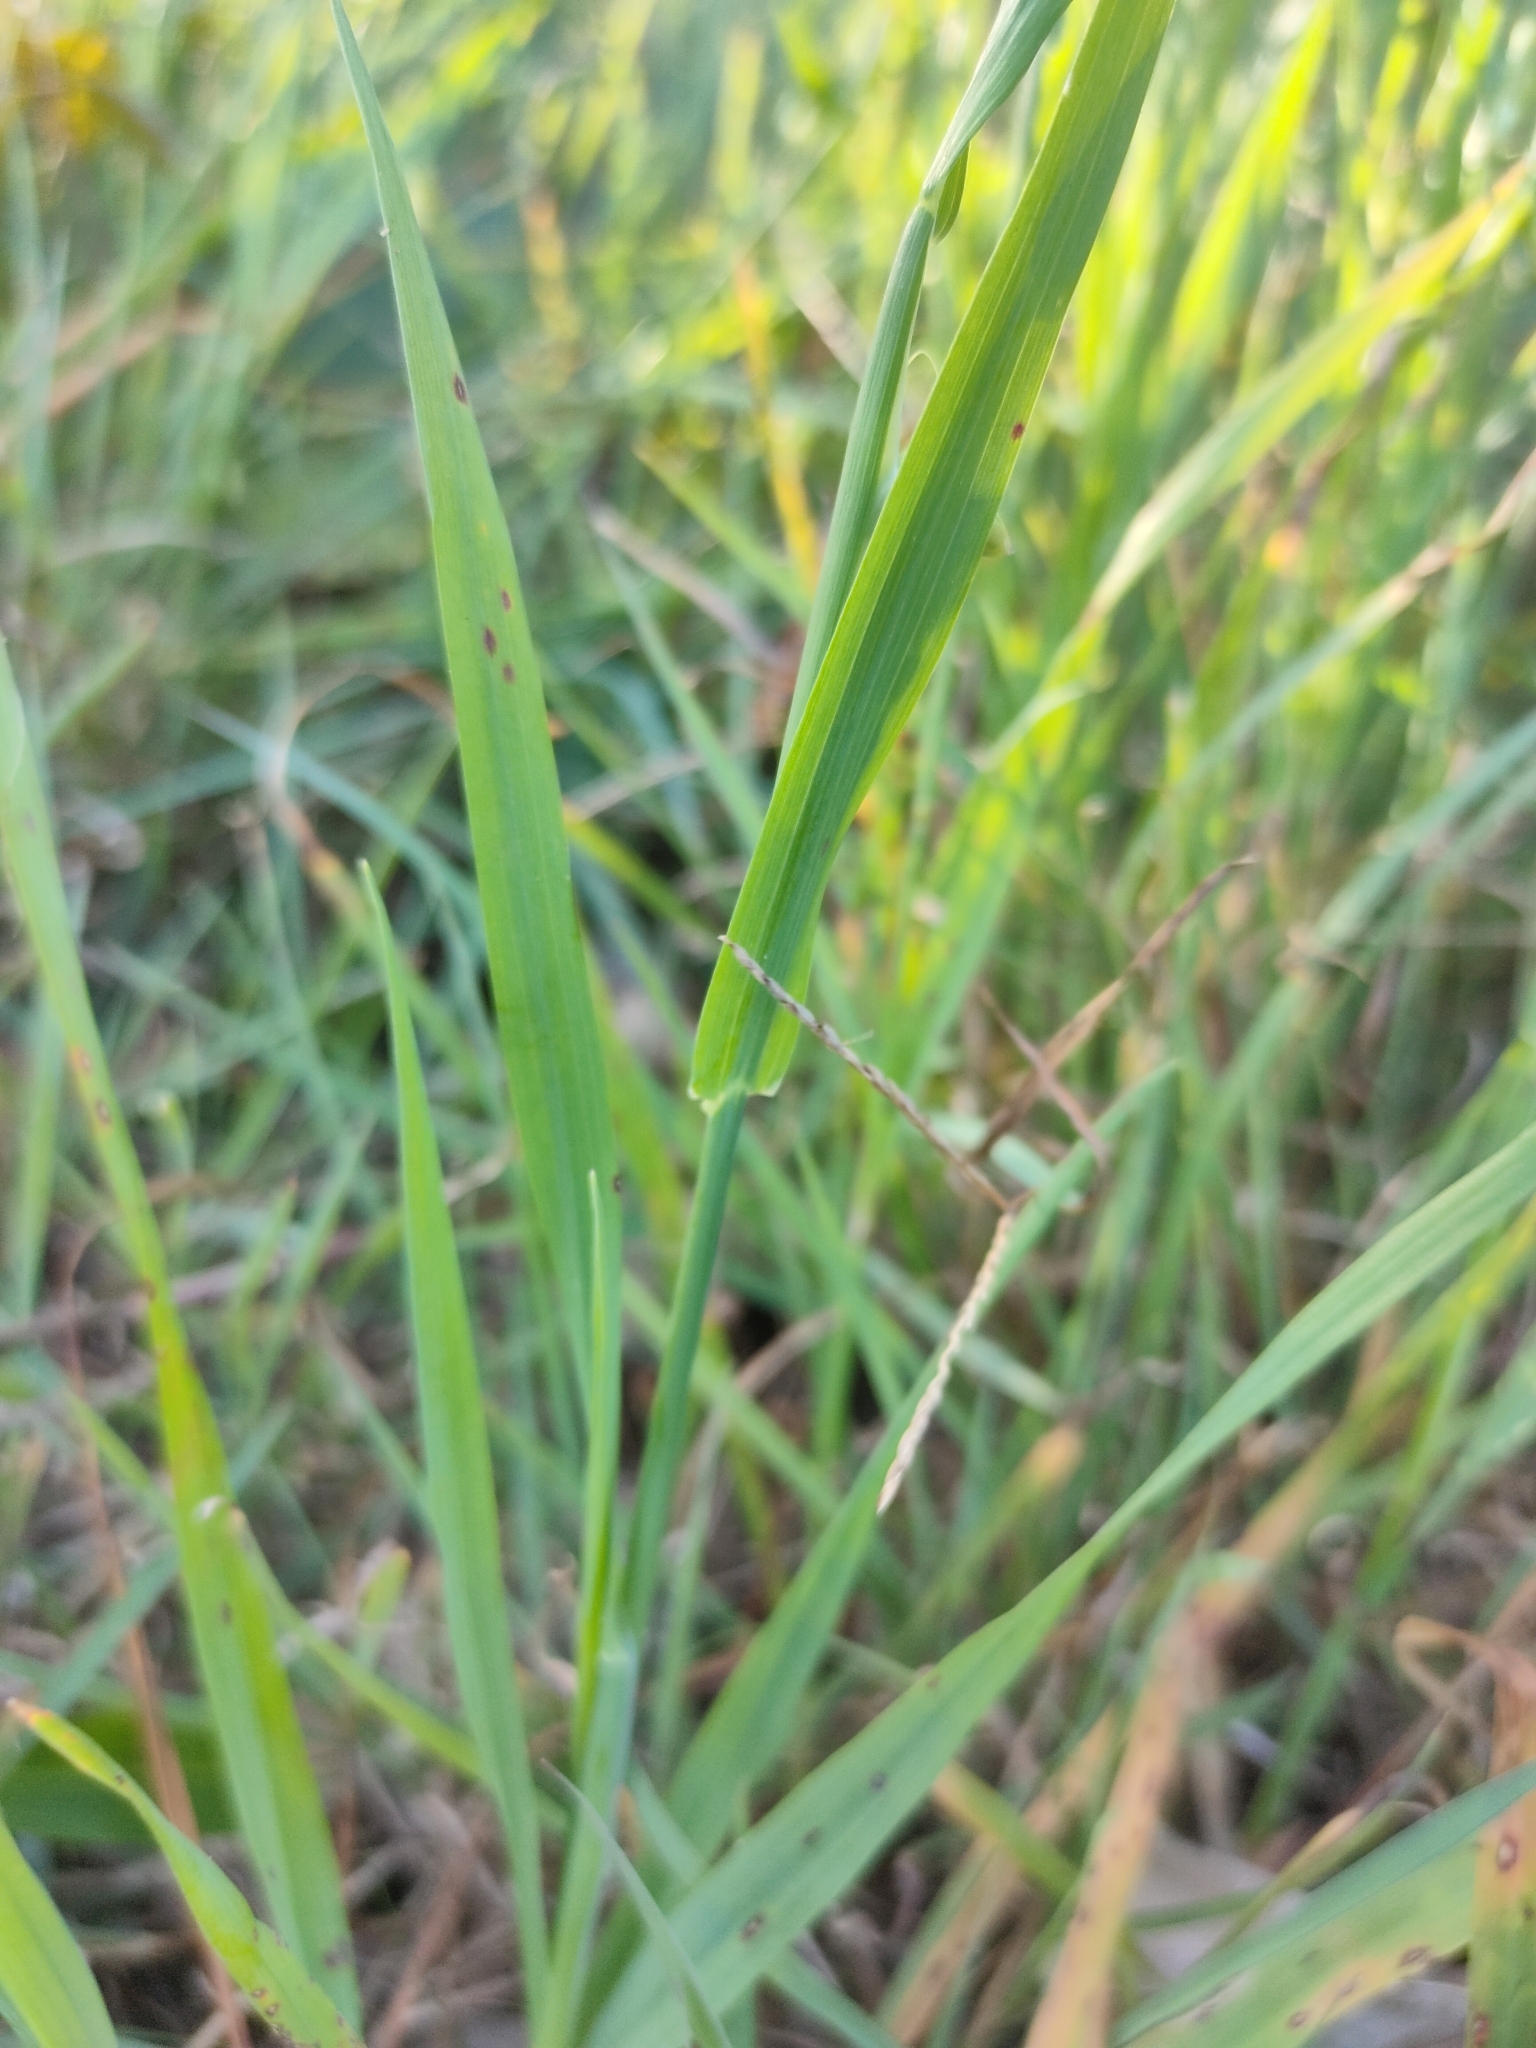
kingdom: Plantae
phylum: Tracheophyta
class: Liliopsida
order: Poales
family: Poaceae
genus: Briza
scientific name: Briza maxima
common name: Big quakinggrass
